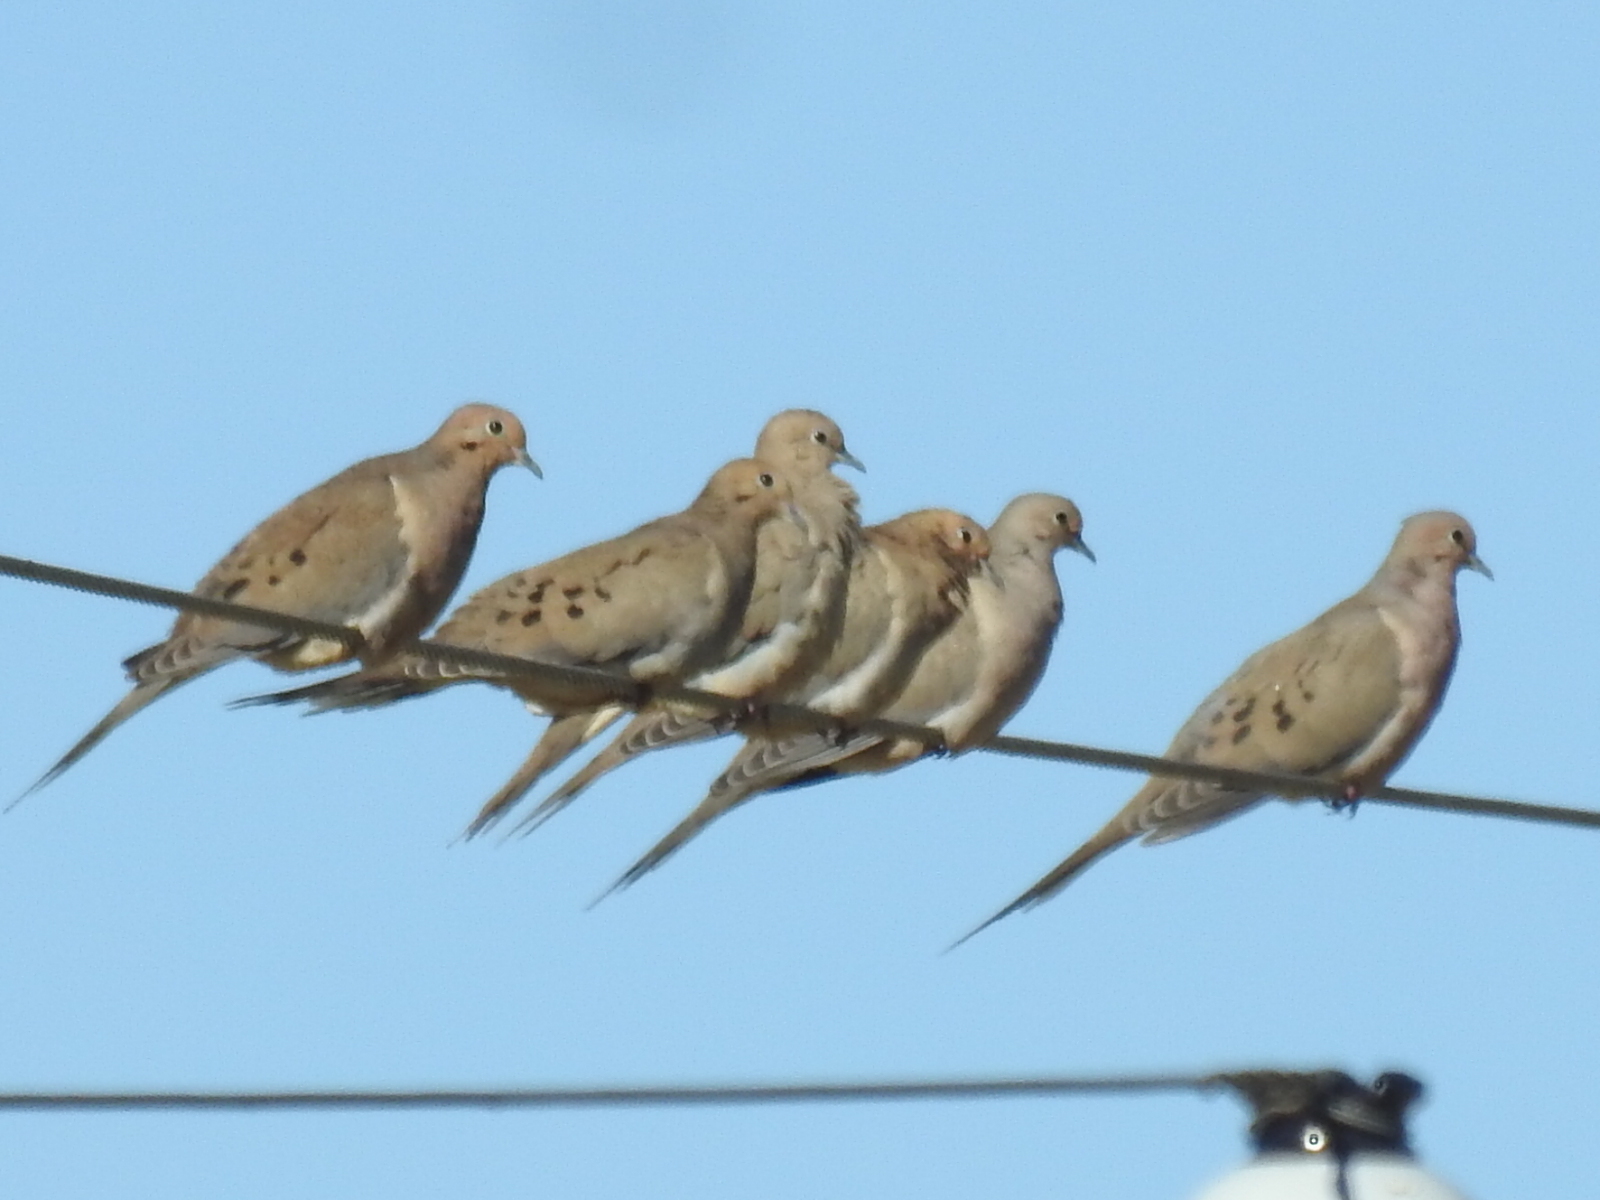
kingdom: Animalia
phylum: Chordata
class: Aves
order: Columbiformes
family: Columbidae
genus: Zenaida
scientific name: Zenaida macroura
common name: Mourning dove
